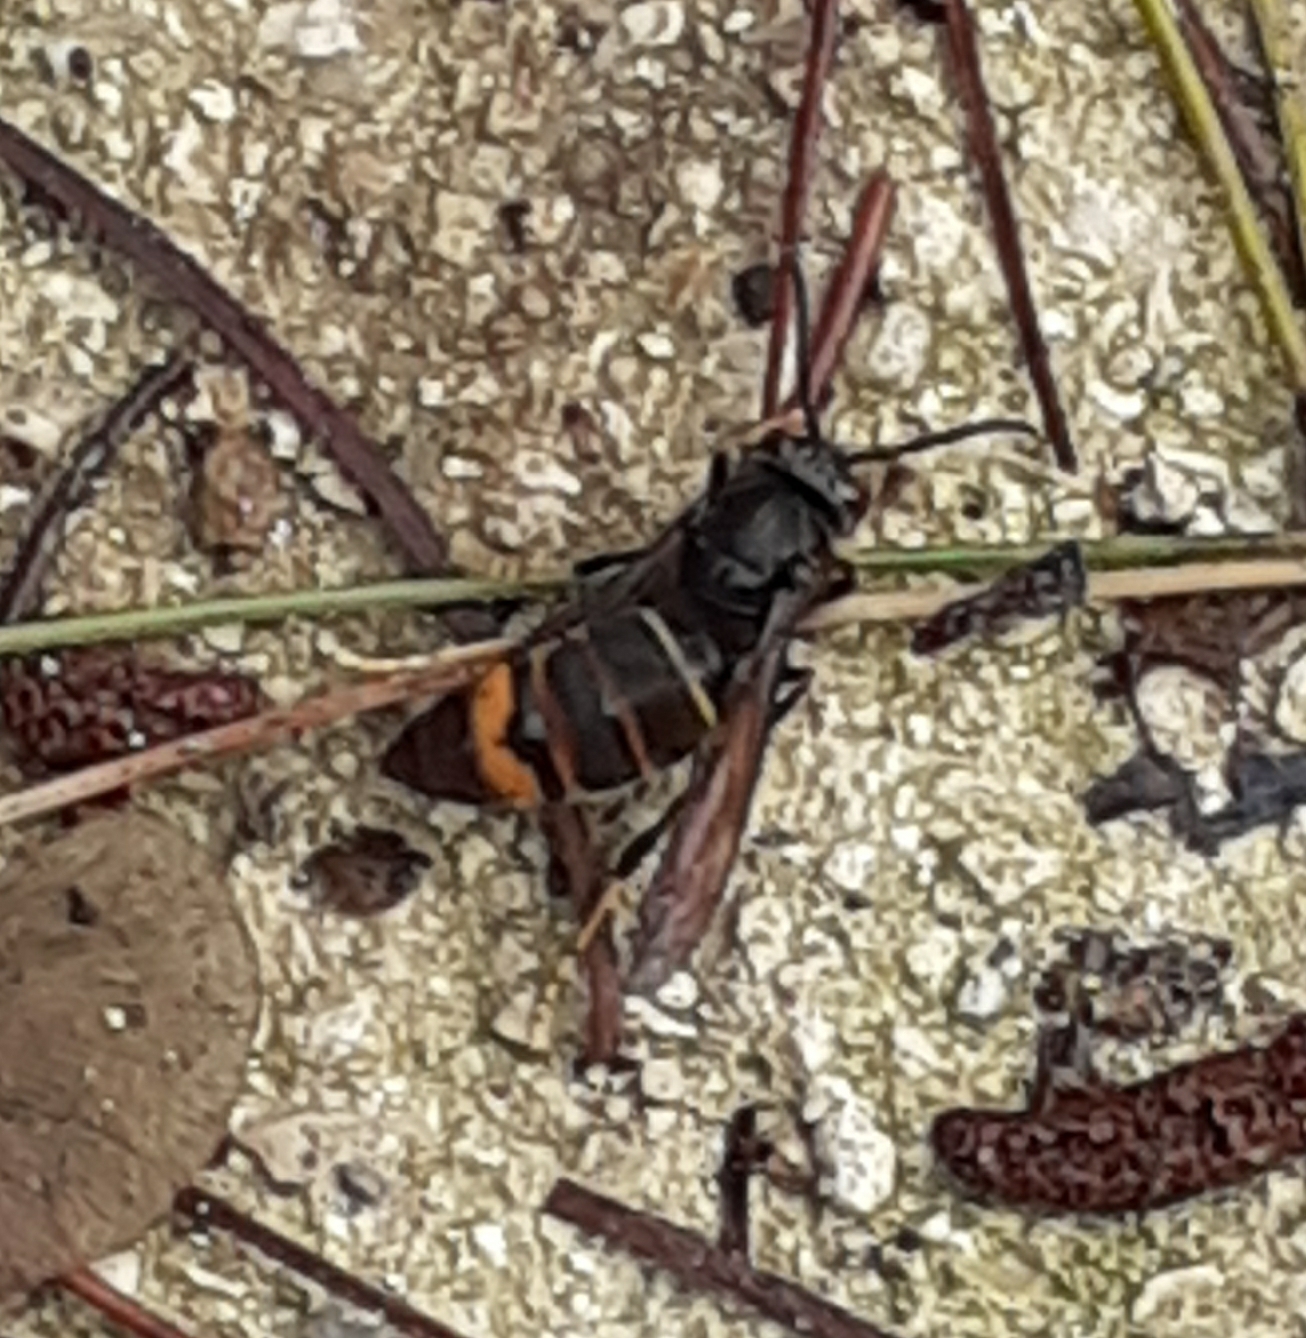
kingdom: Animalia
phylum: Arthropoda
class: Insecta
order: Hymenoptera
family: Vespidae
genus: Vespa
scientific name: Vespa velutina
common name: Asian hornet
